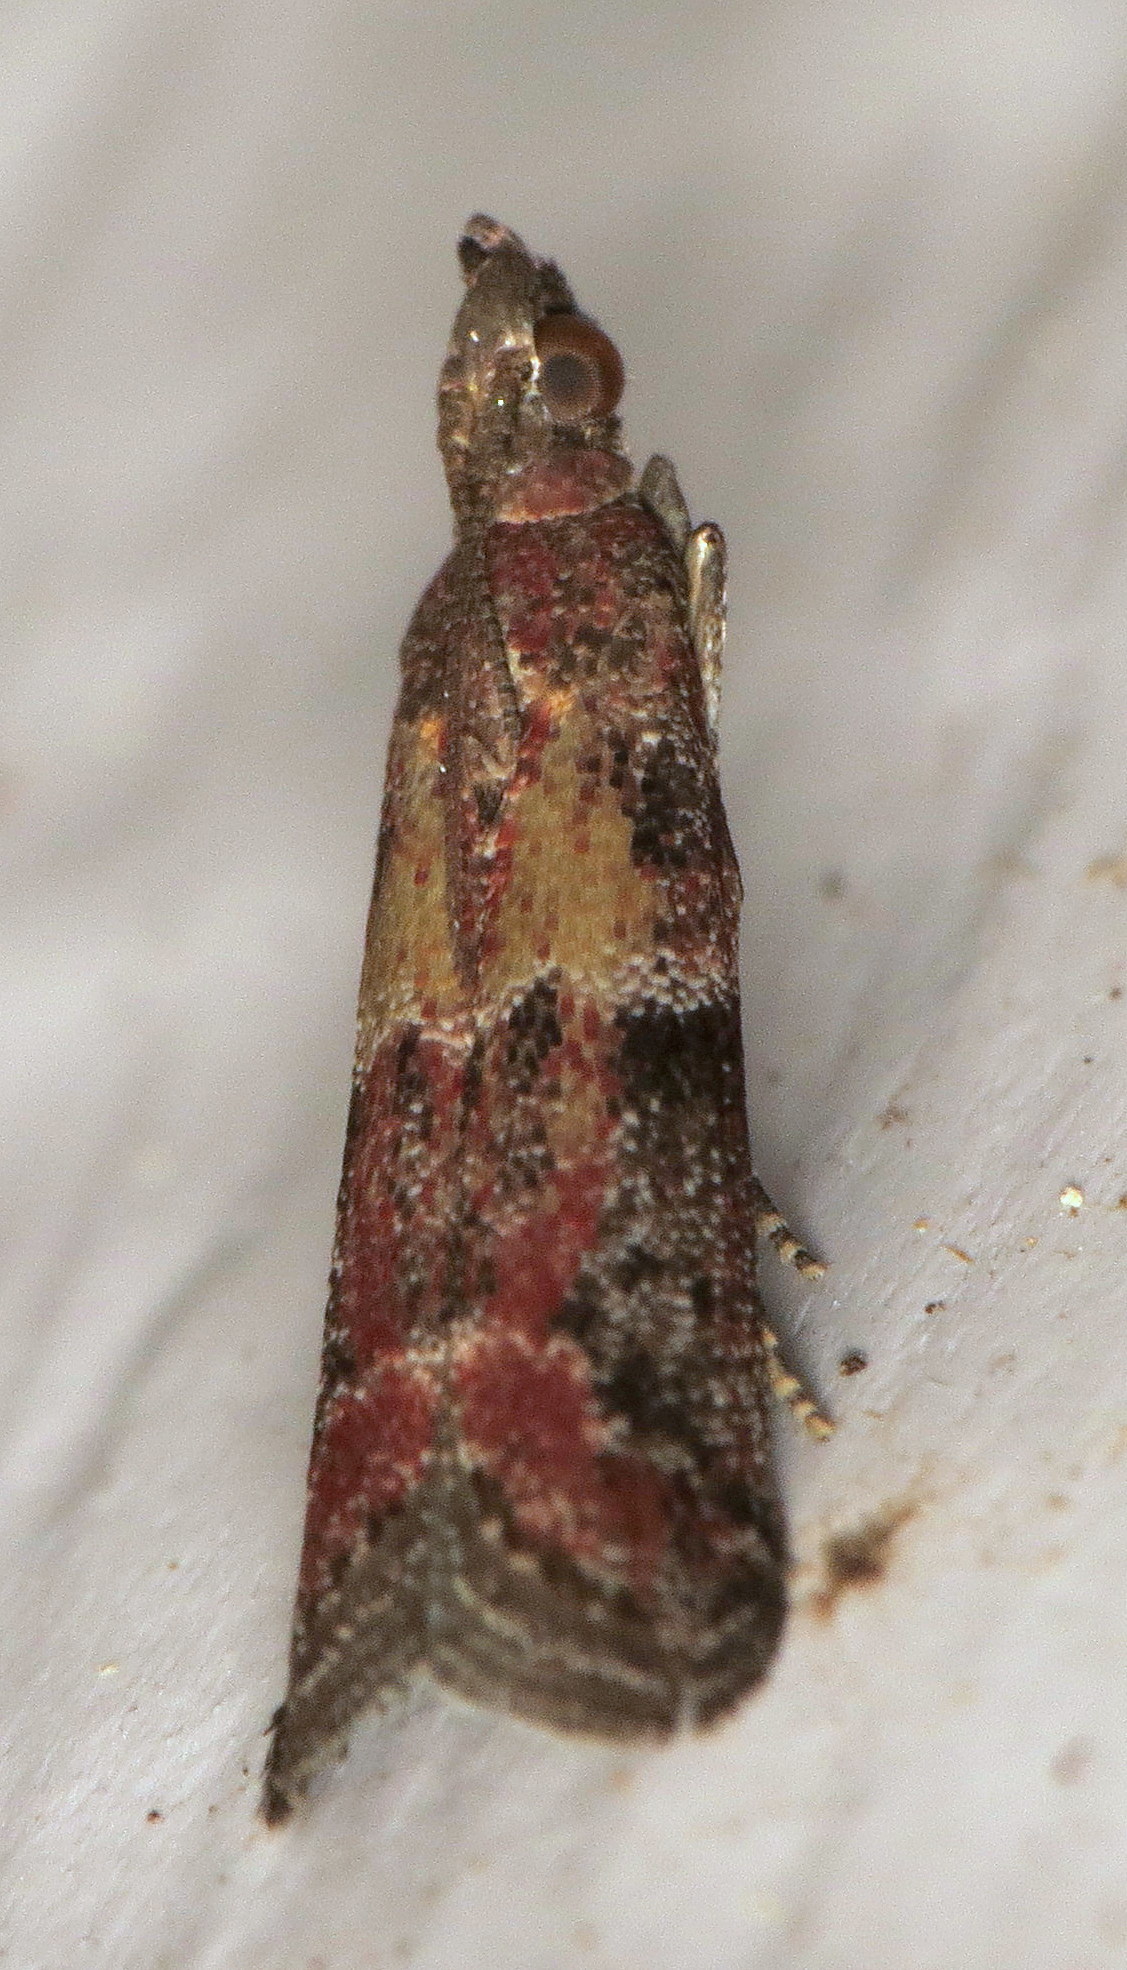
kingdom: Animalia
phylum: Arthropoda
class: Insecta
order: Lepidoptera
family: Pyralidae
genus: Ephestiodes
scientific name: Ephestiodes infimella
